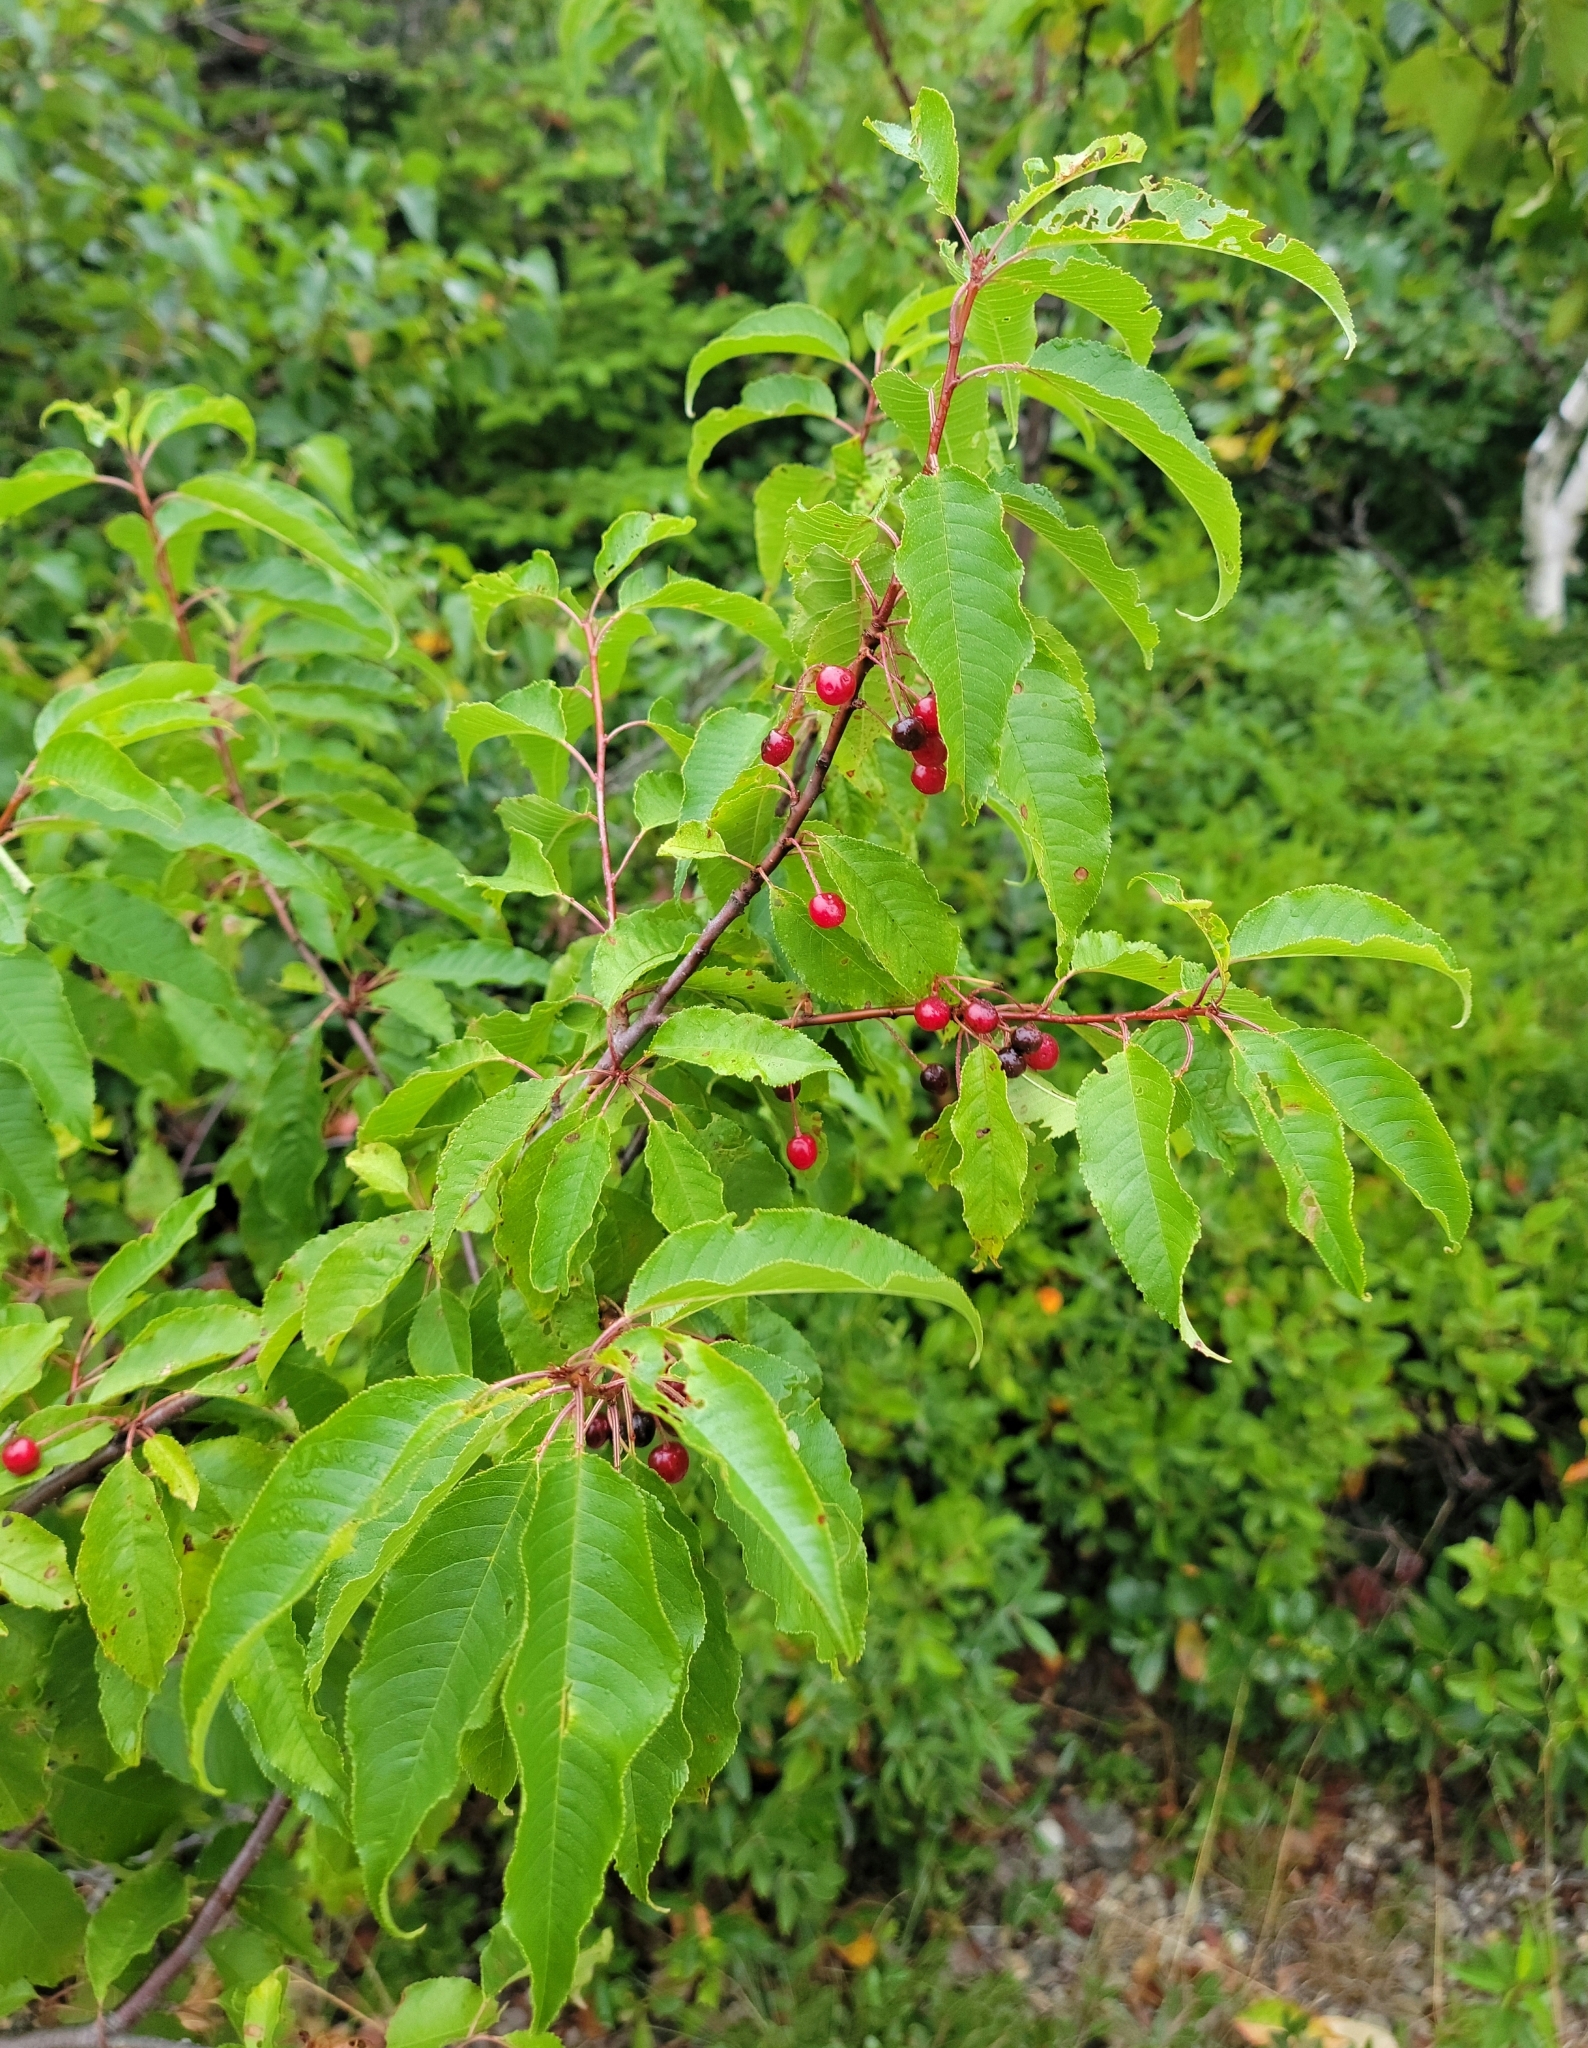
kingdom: Plantae
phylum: Tracheophyta
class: Magnoliopsida
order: Rosales
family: Rosaceae
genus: Prunus
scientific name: Prunus pensylvanica
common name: Pin cherry
